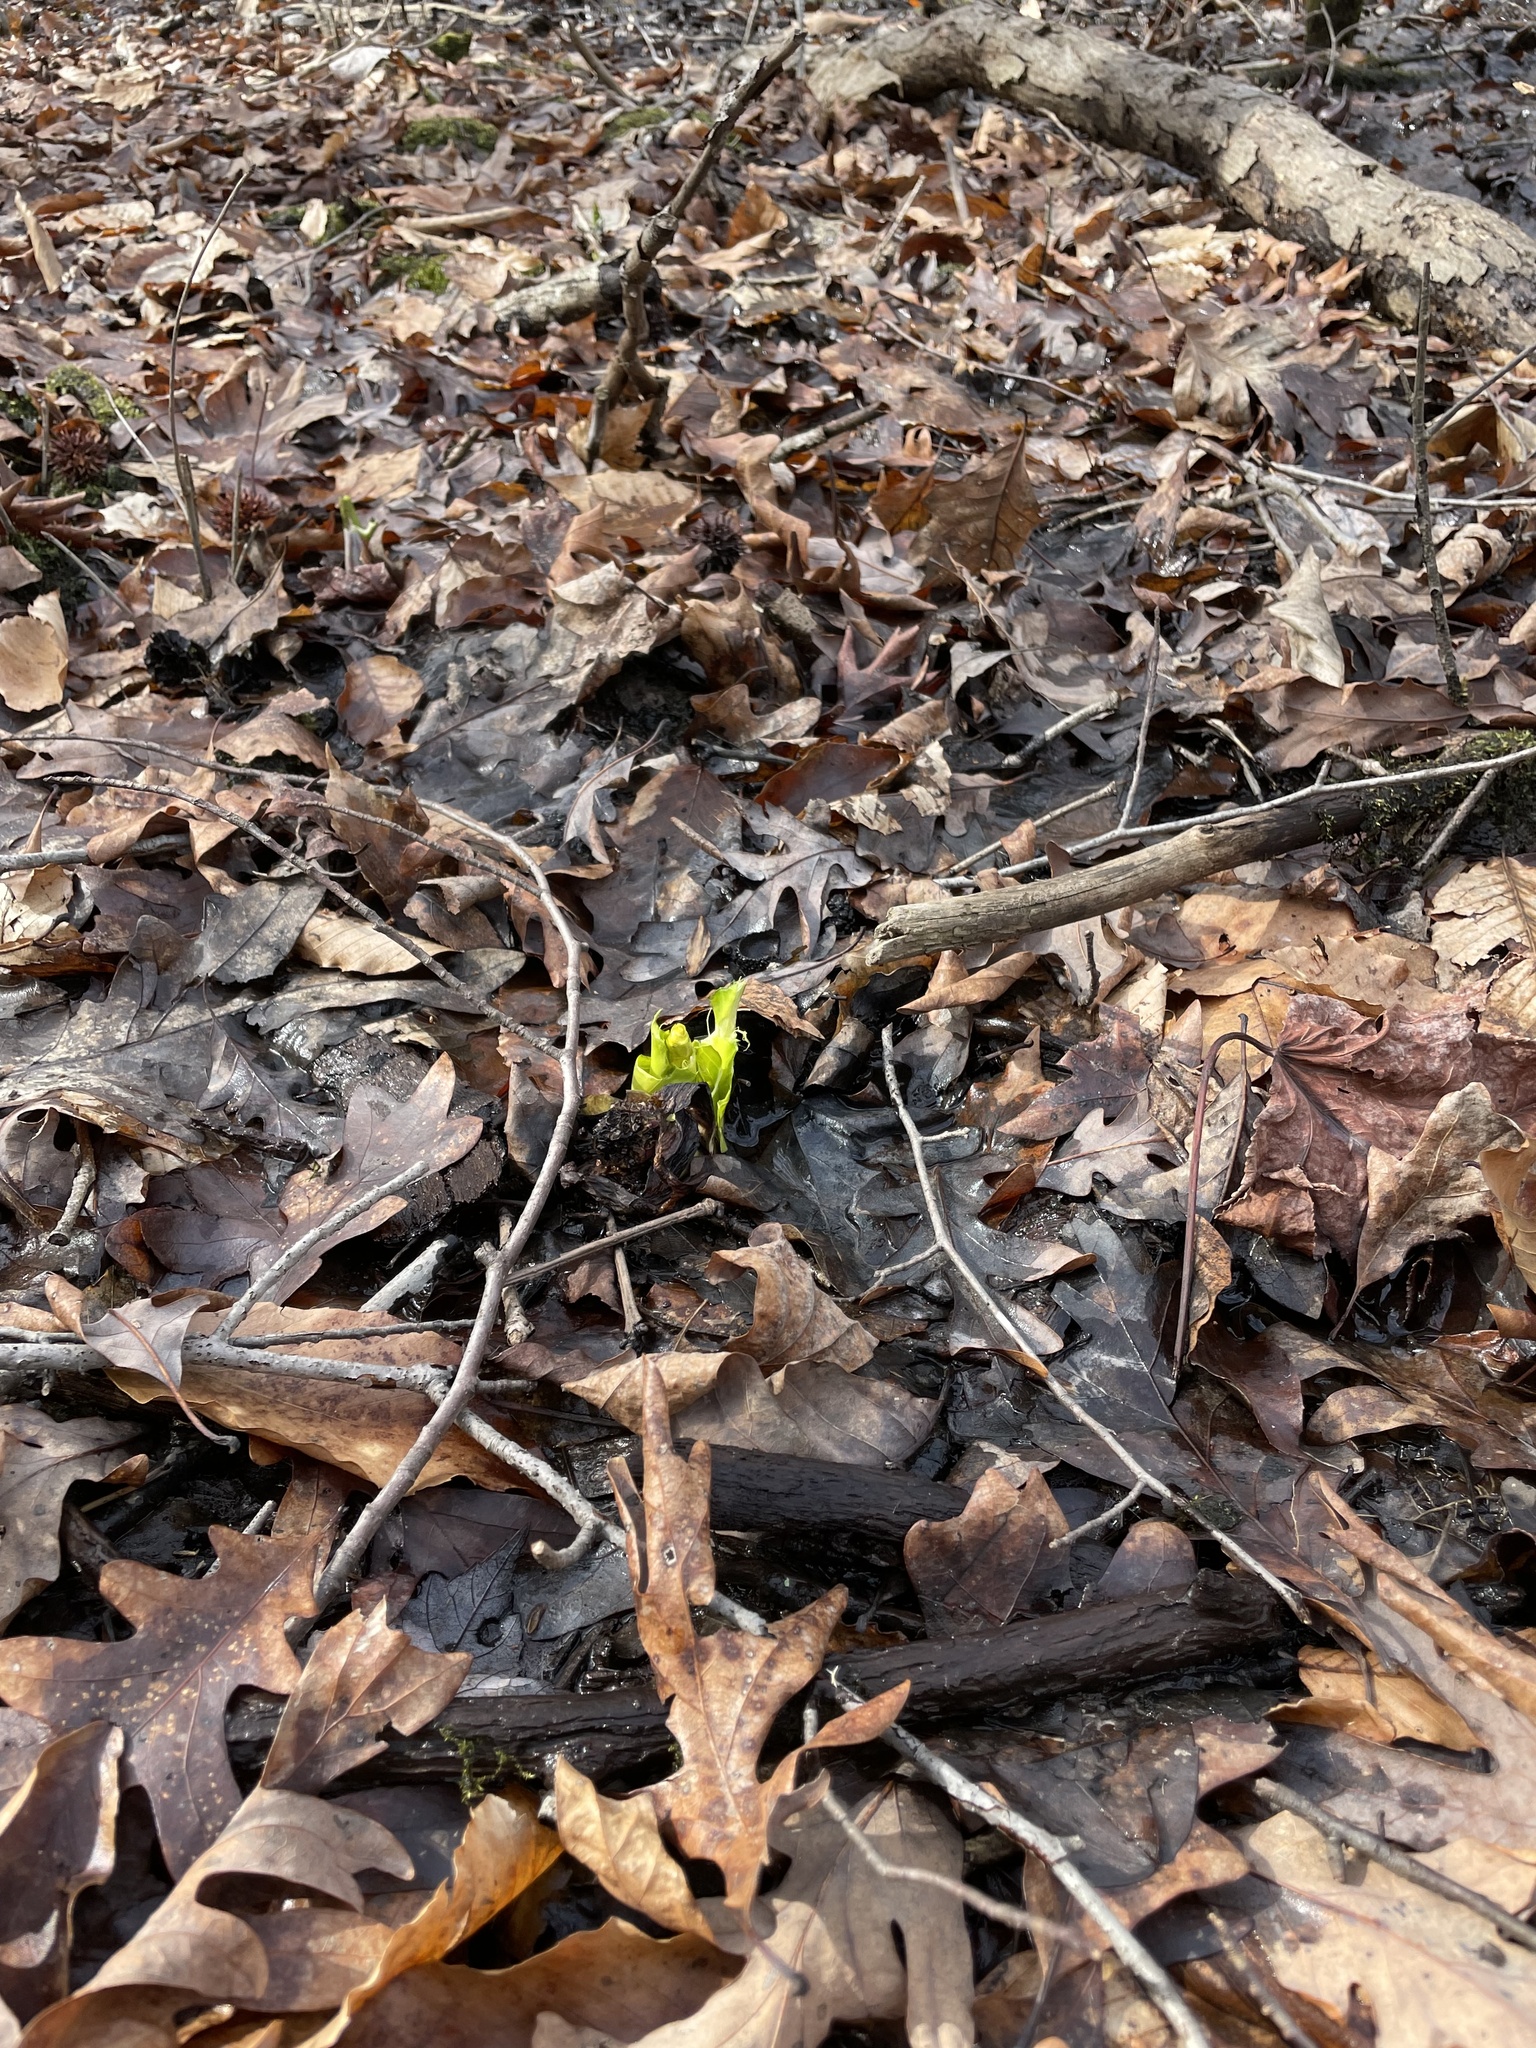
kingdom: Plantae
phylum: Tracheophyta
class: Liliopsida
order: Alismatales
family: Araceae
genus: Symplocarpus
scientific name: Symplocarpus foetidus
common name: Eastern skunk cabbage
